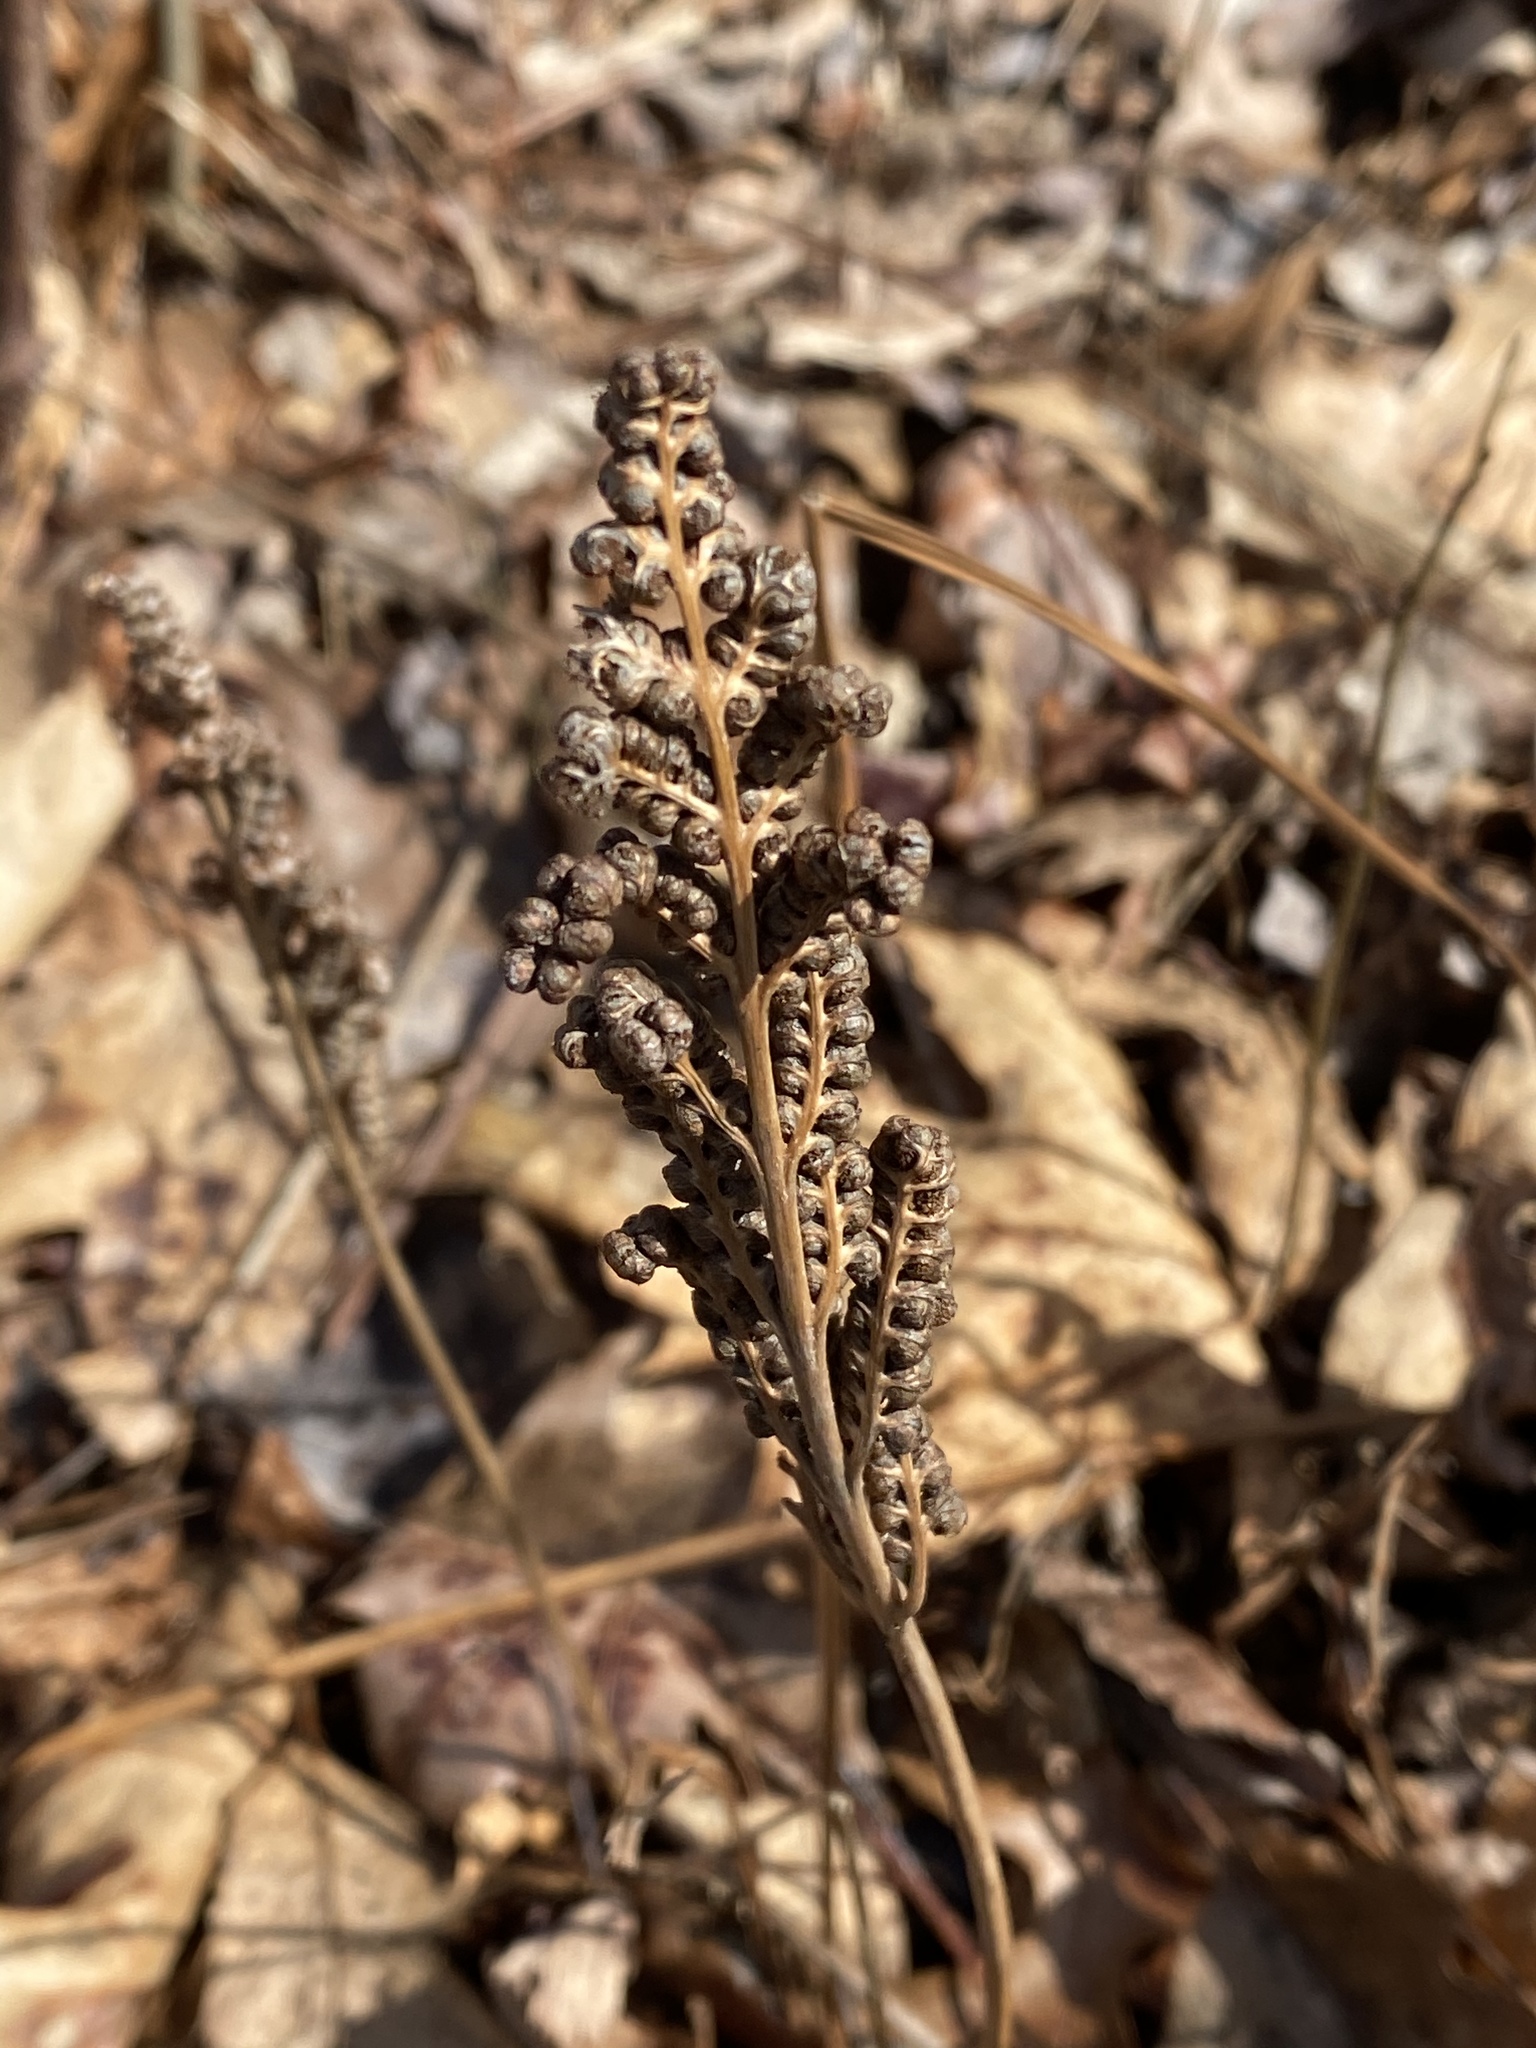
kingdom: Plantae
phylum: Tracheophyta
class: Polypodiopsida
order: Polypodiales
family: Onocleaceae
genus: Onoclea
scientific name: Onoclea sensibilis
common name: Sensitive fern
